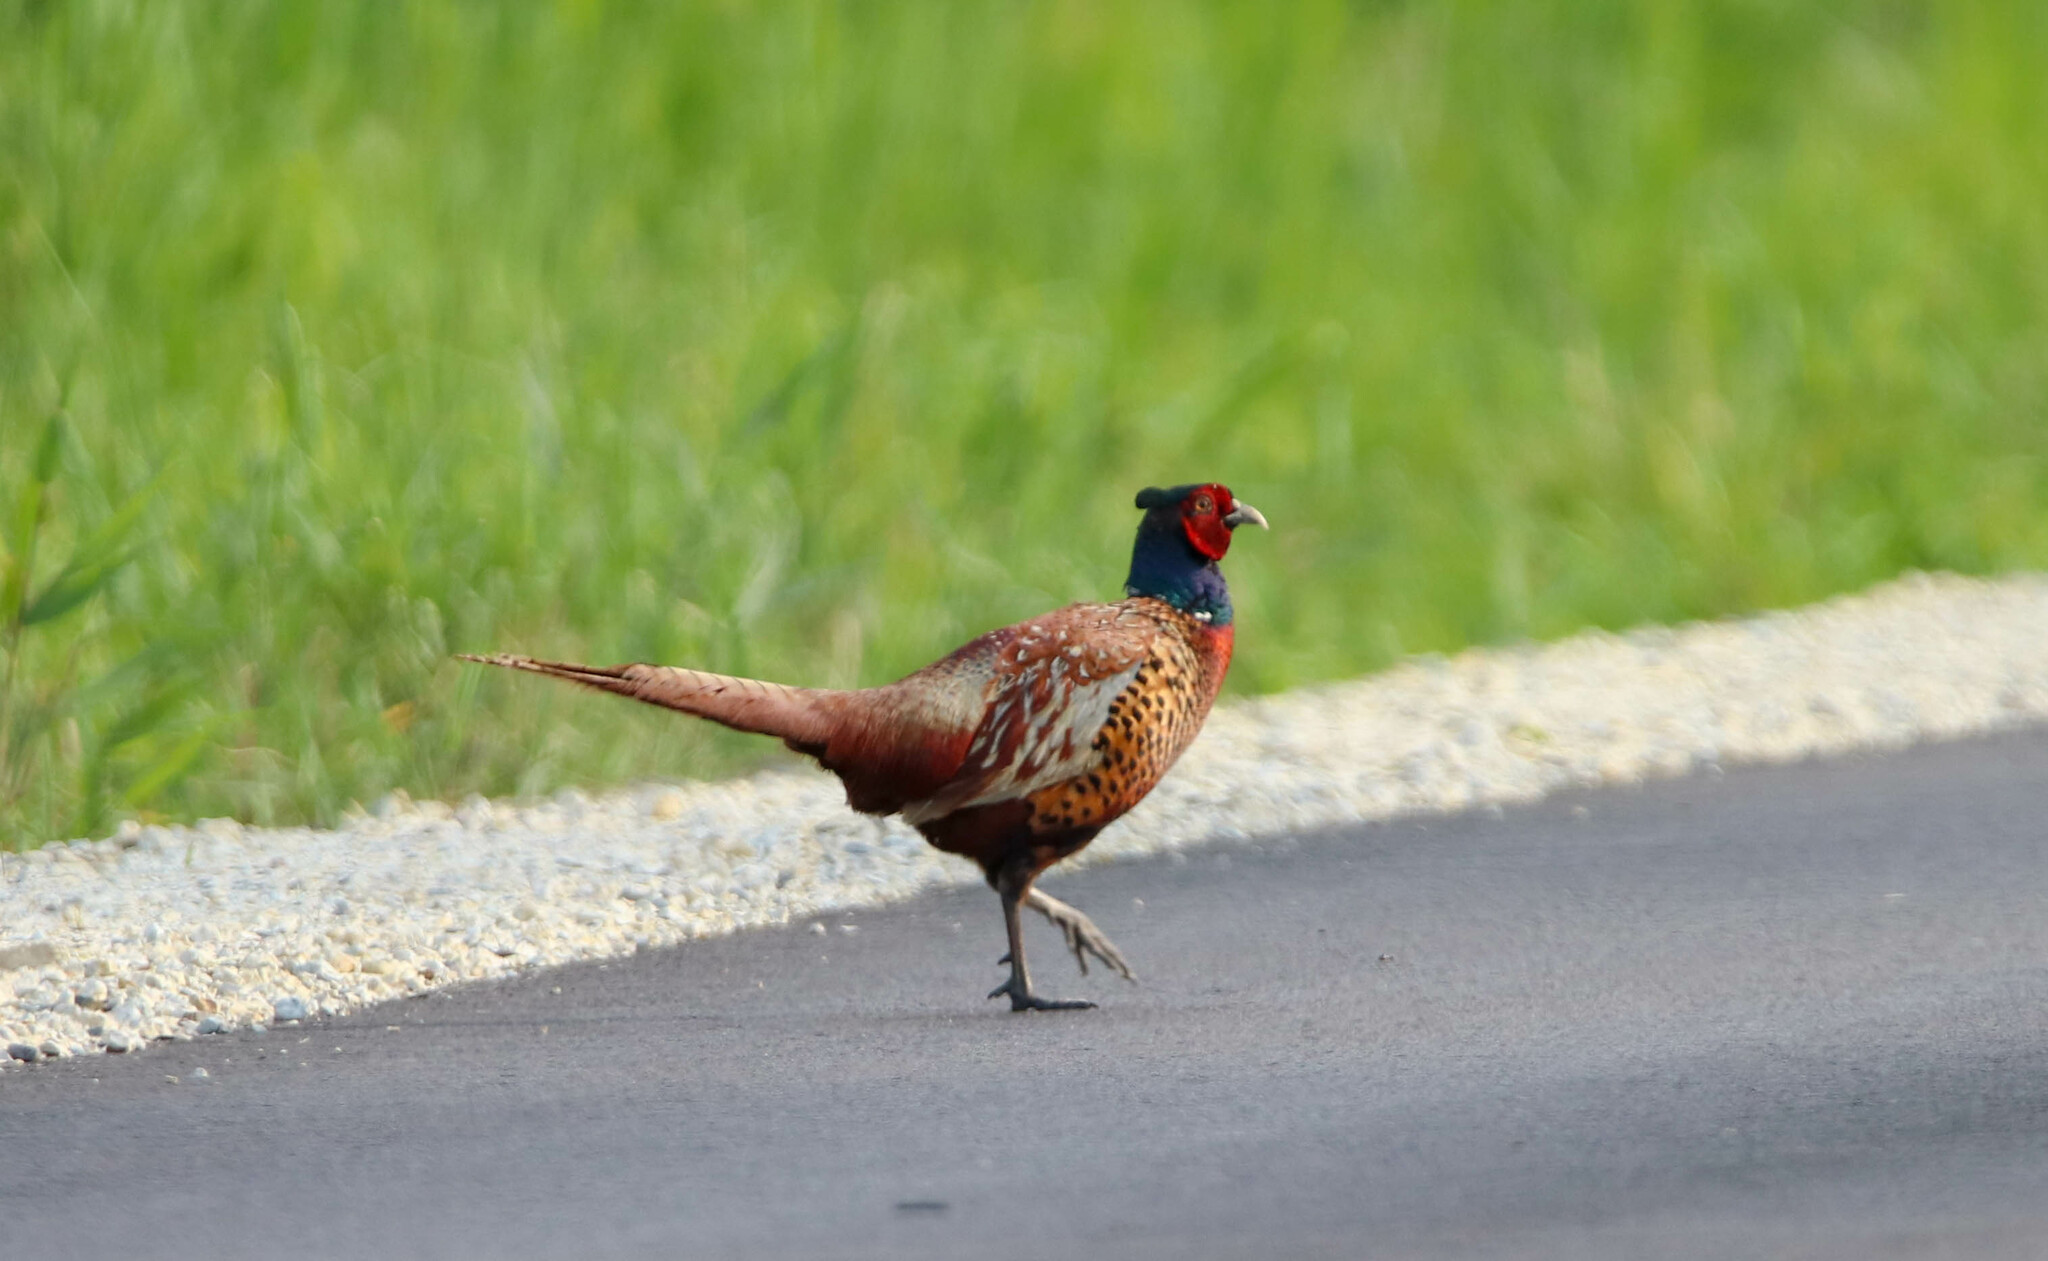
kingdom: Animalia
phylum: Chordata
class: Aves
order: Galliformes
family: Phasianidae
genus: Phasianus
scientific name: Phasianus colchicus
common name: Common pheasant
